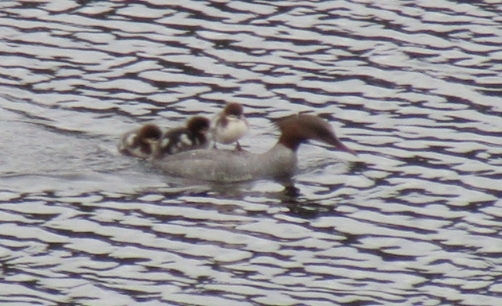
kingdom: Animalia
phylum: Chordata
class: Aves
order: Anseriformes
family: Anatidae
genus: Mergus
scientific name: Mergus merganser
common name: Common merganser
